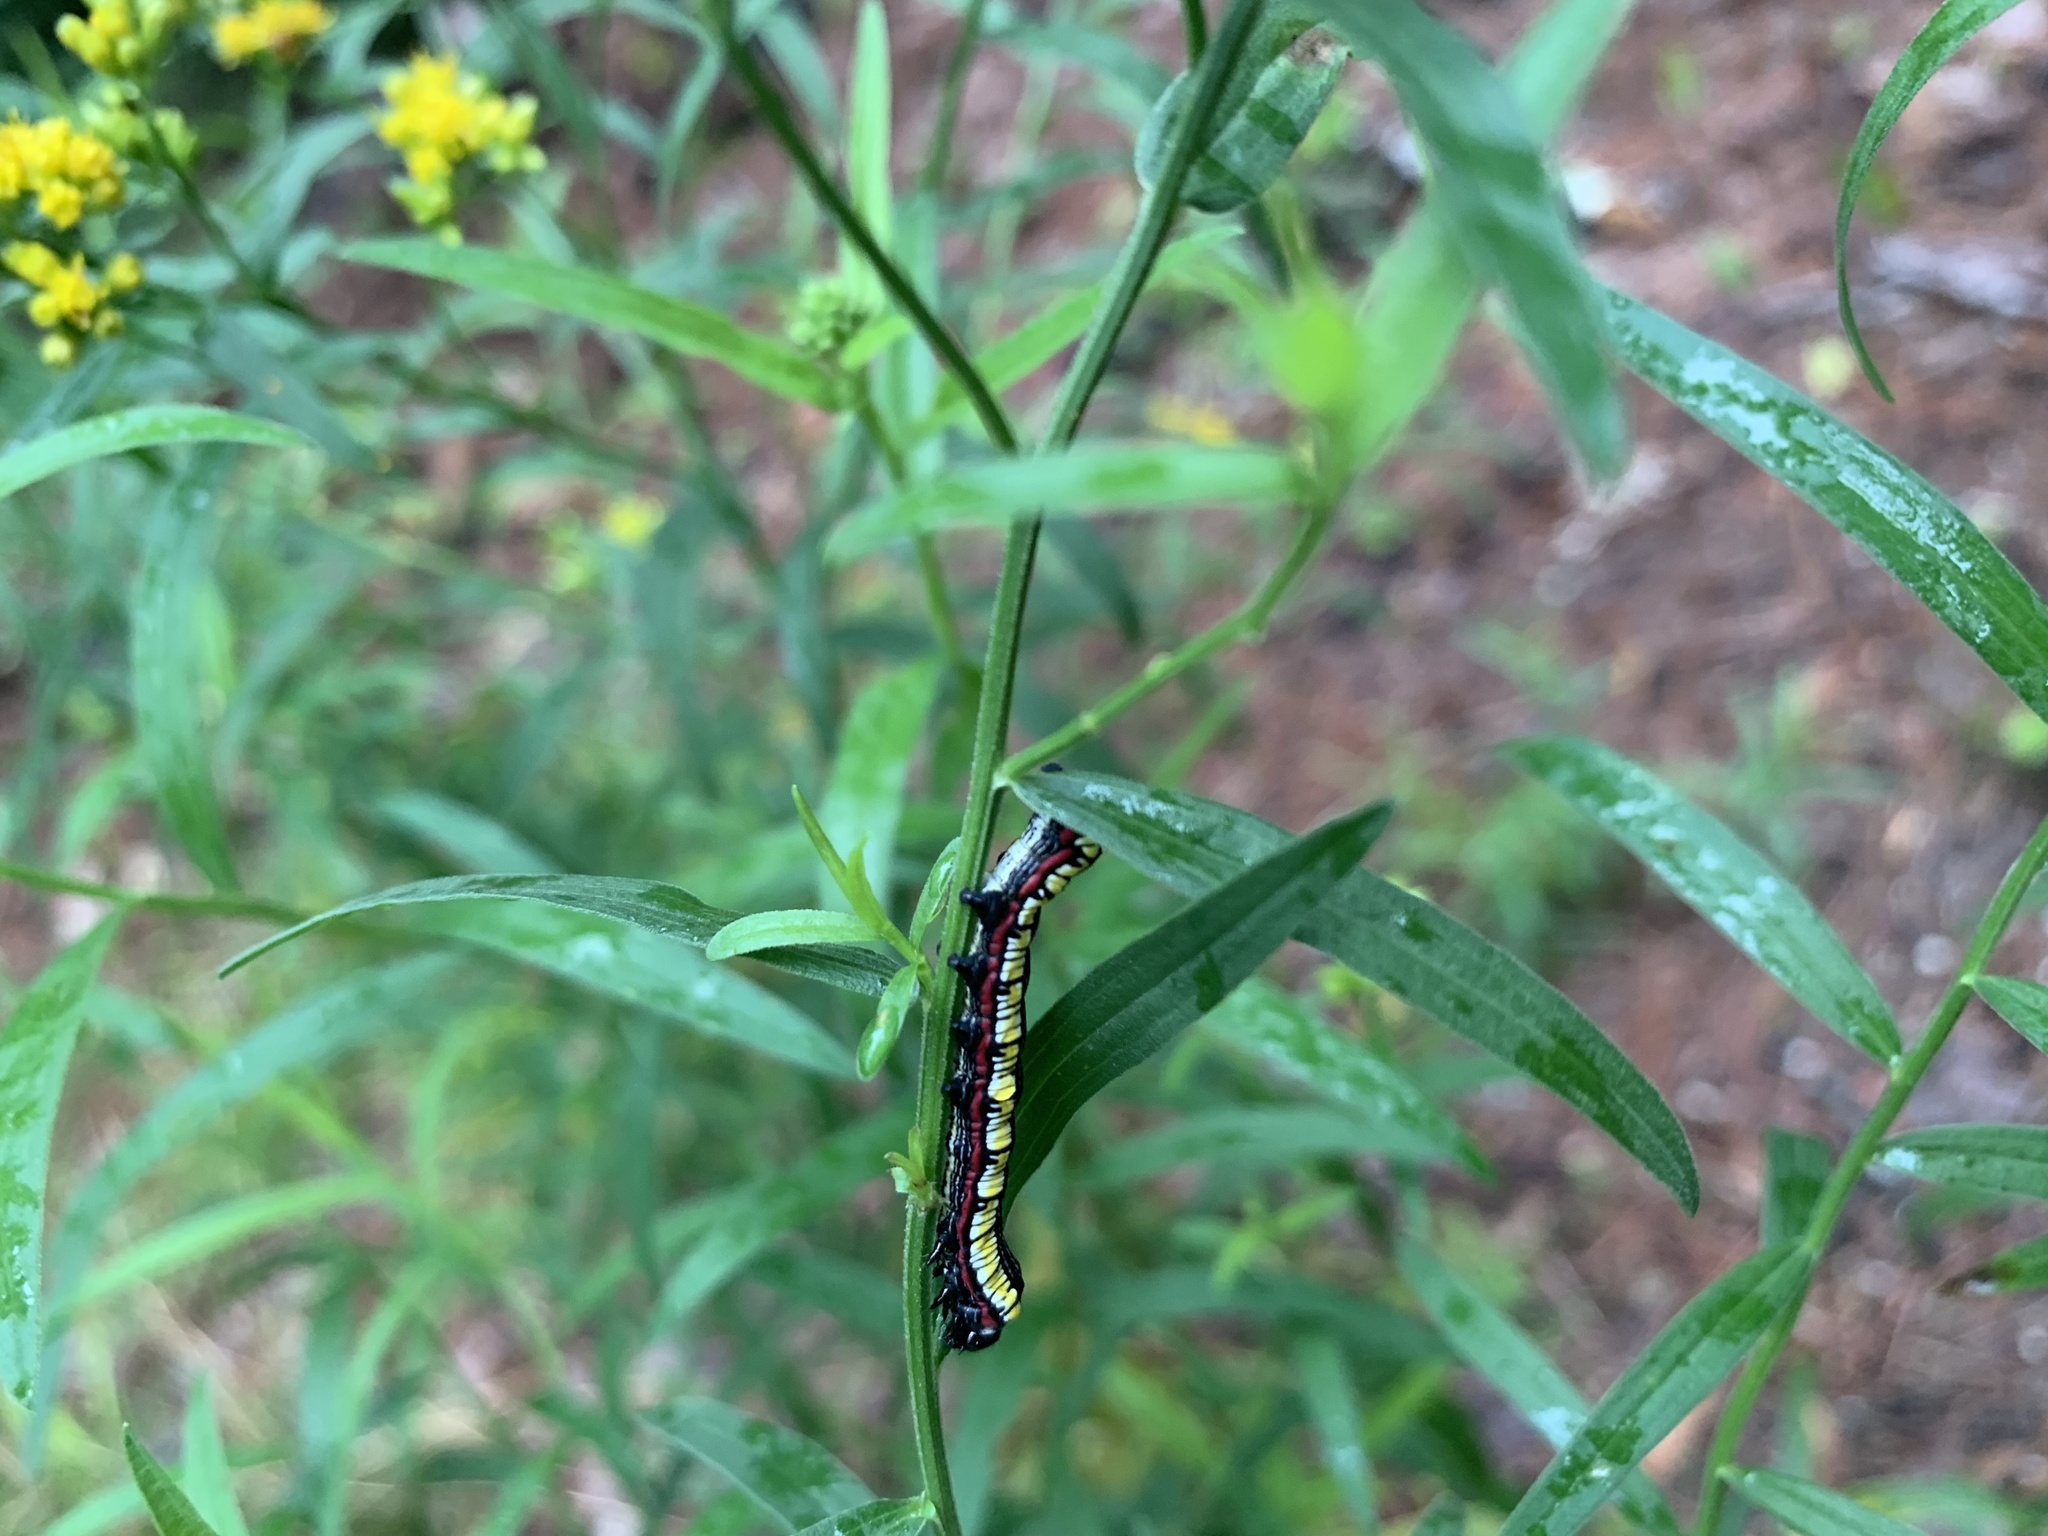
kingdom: Animalia
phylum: Arthropoda
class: Insecta
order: Lepidoptera
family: Noctuidae
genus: Cucullia
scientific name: Cucullia convexipennis
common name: Brown-hooded owlet
